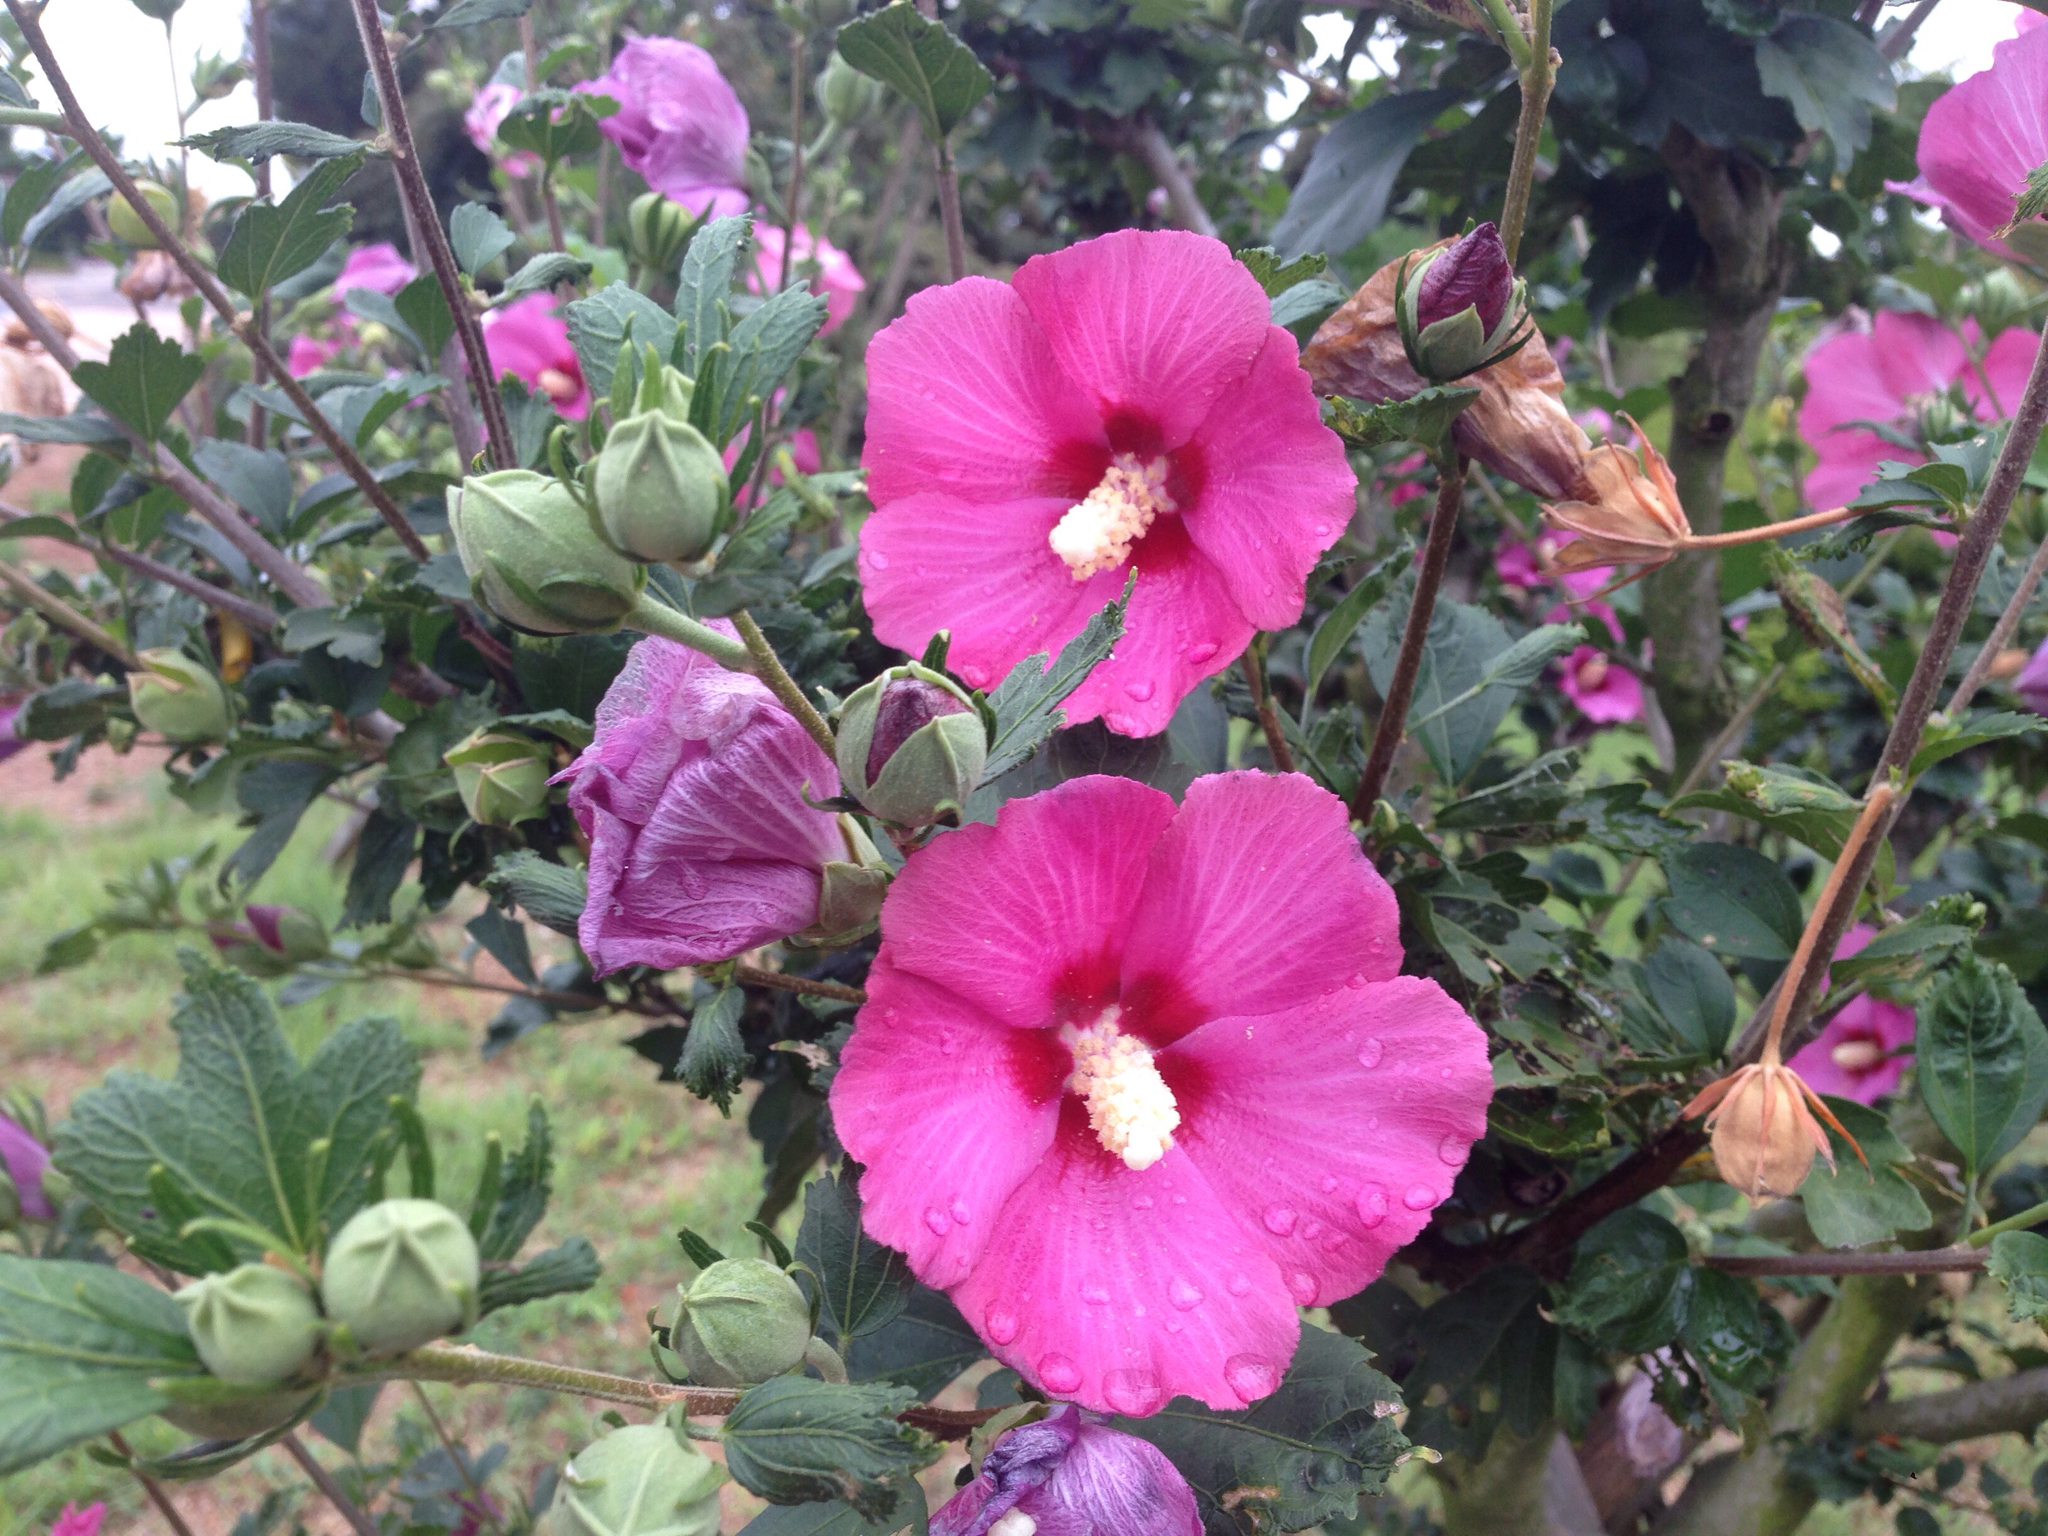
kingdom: Plantae
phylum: Tracheophyta
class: Magnoliopsida
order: Malvales
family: Malvaceae
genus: Hibiscus
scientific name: Hibiscus syriacus
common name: Syrian ketmia
